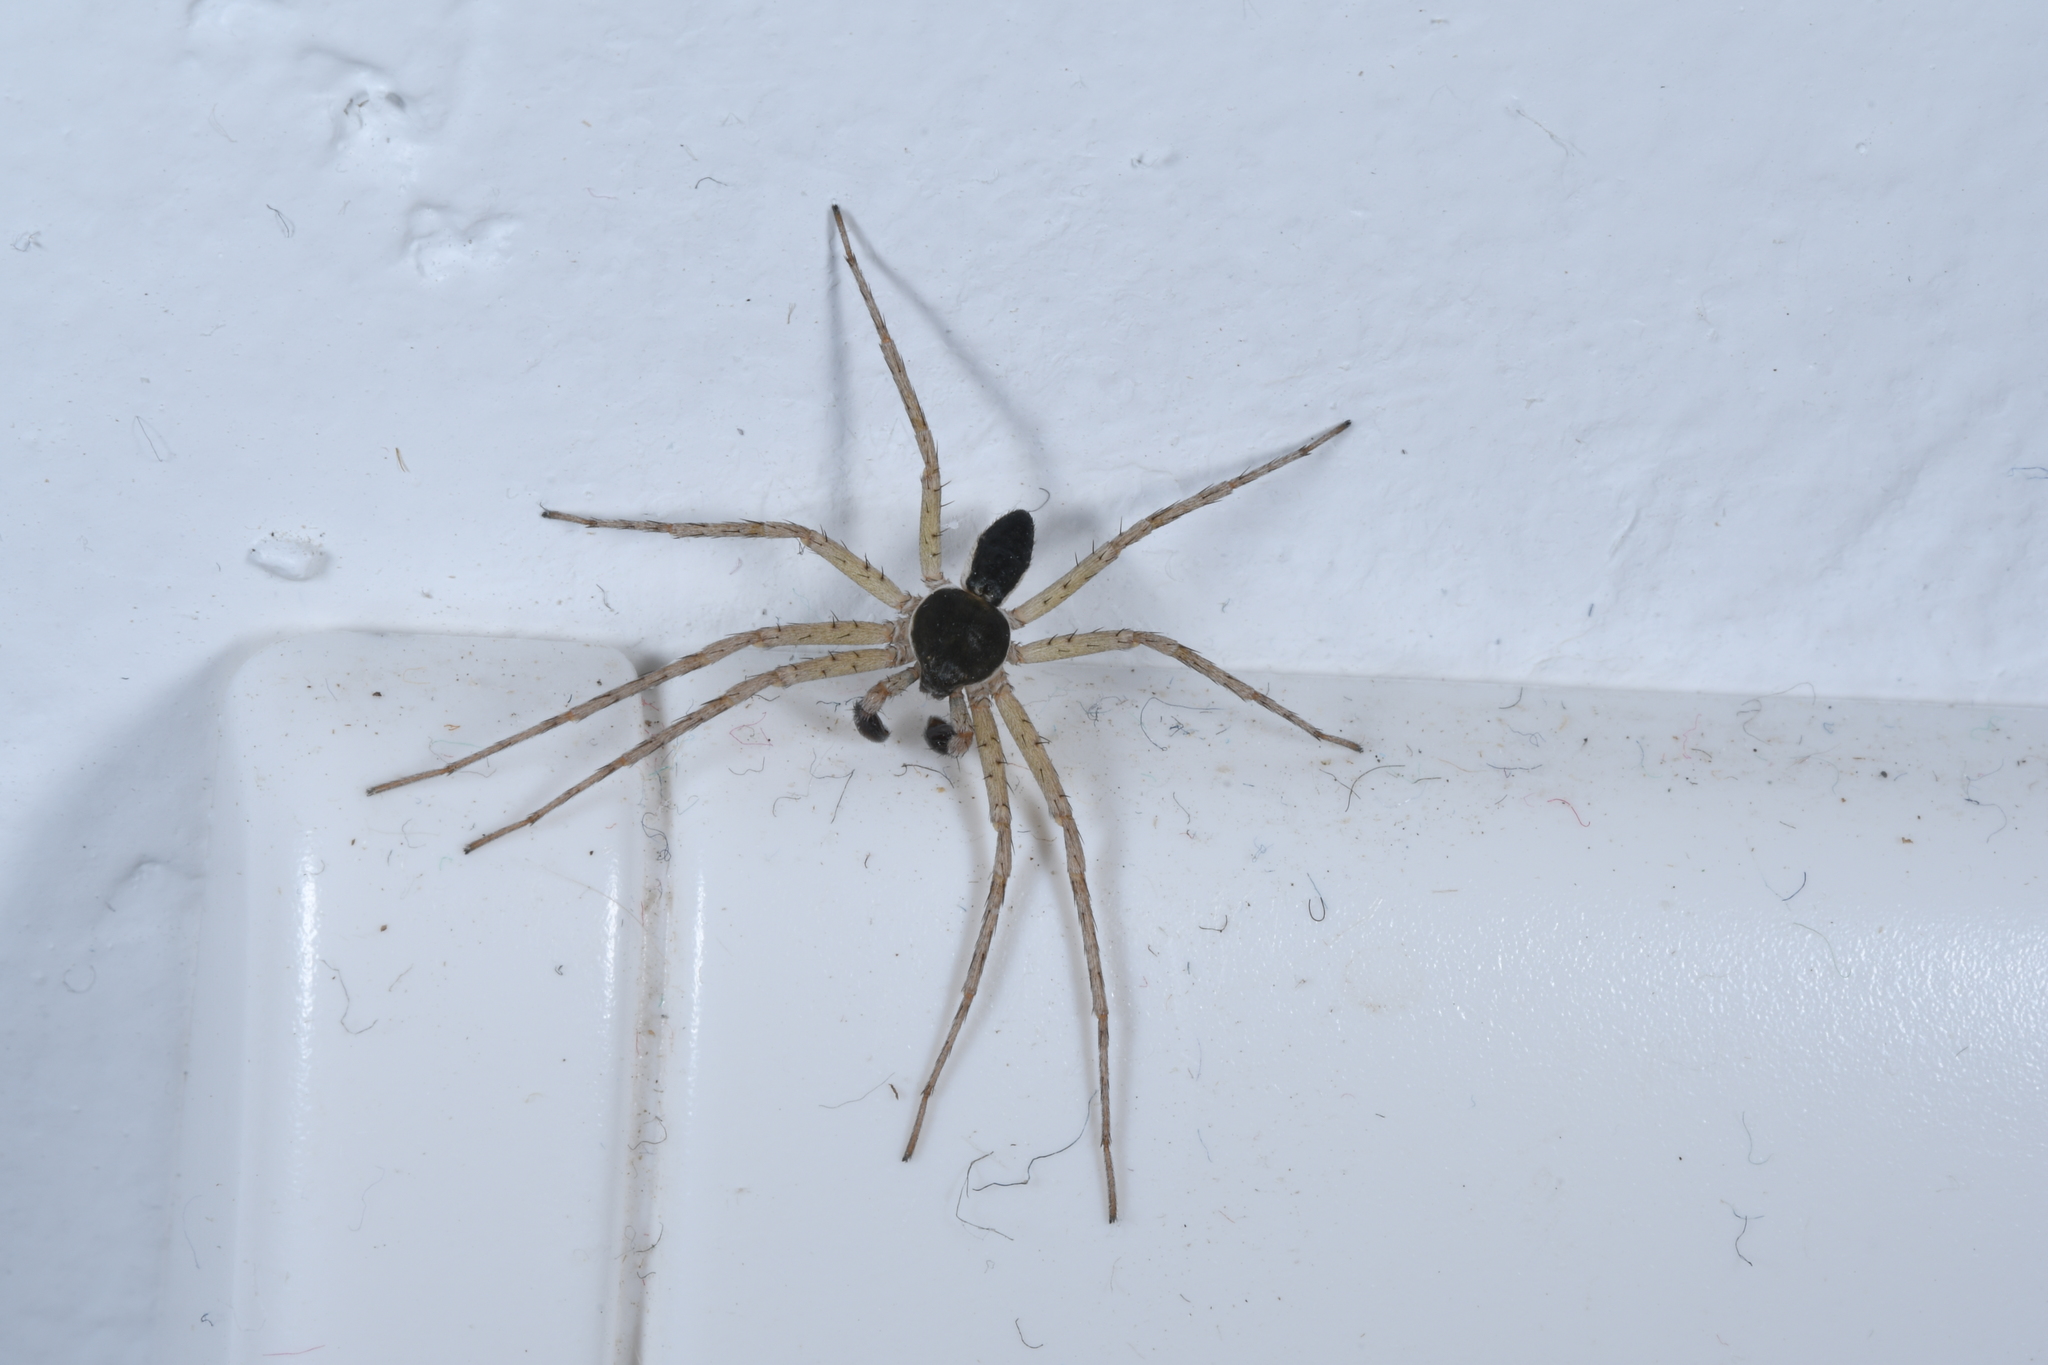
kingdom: Animalia
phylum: Arthropoda
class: Arachnida
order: Araneae
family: Philodromidae
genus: Philodromus
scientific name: Philodromus dispar
